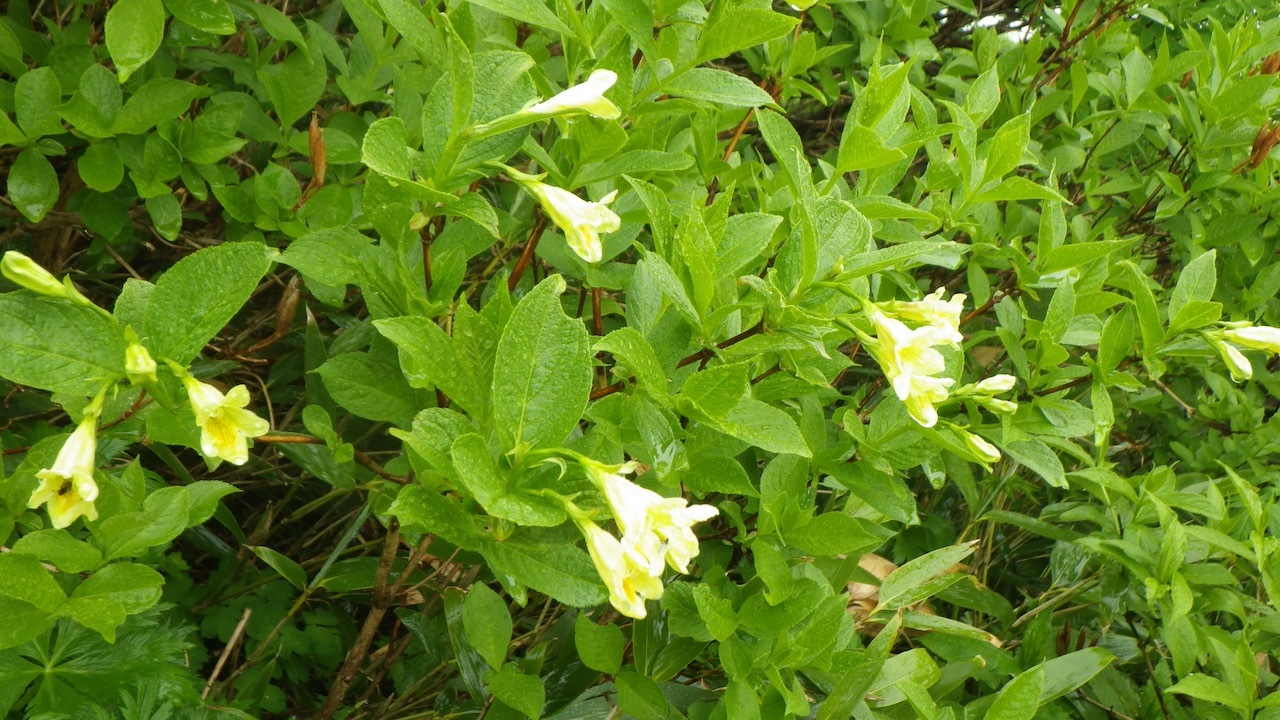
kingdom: Plantae
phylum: Tracheophyta
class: Magnoliopsida
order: Dipsacales
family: Caprifoliaceae
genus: Weigela
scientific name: Weigela middendorffiana
